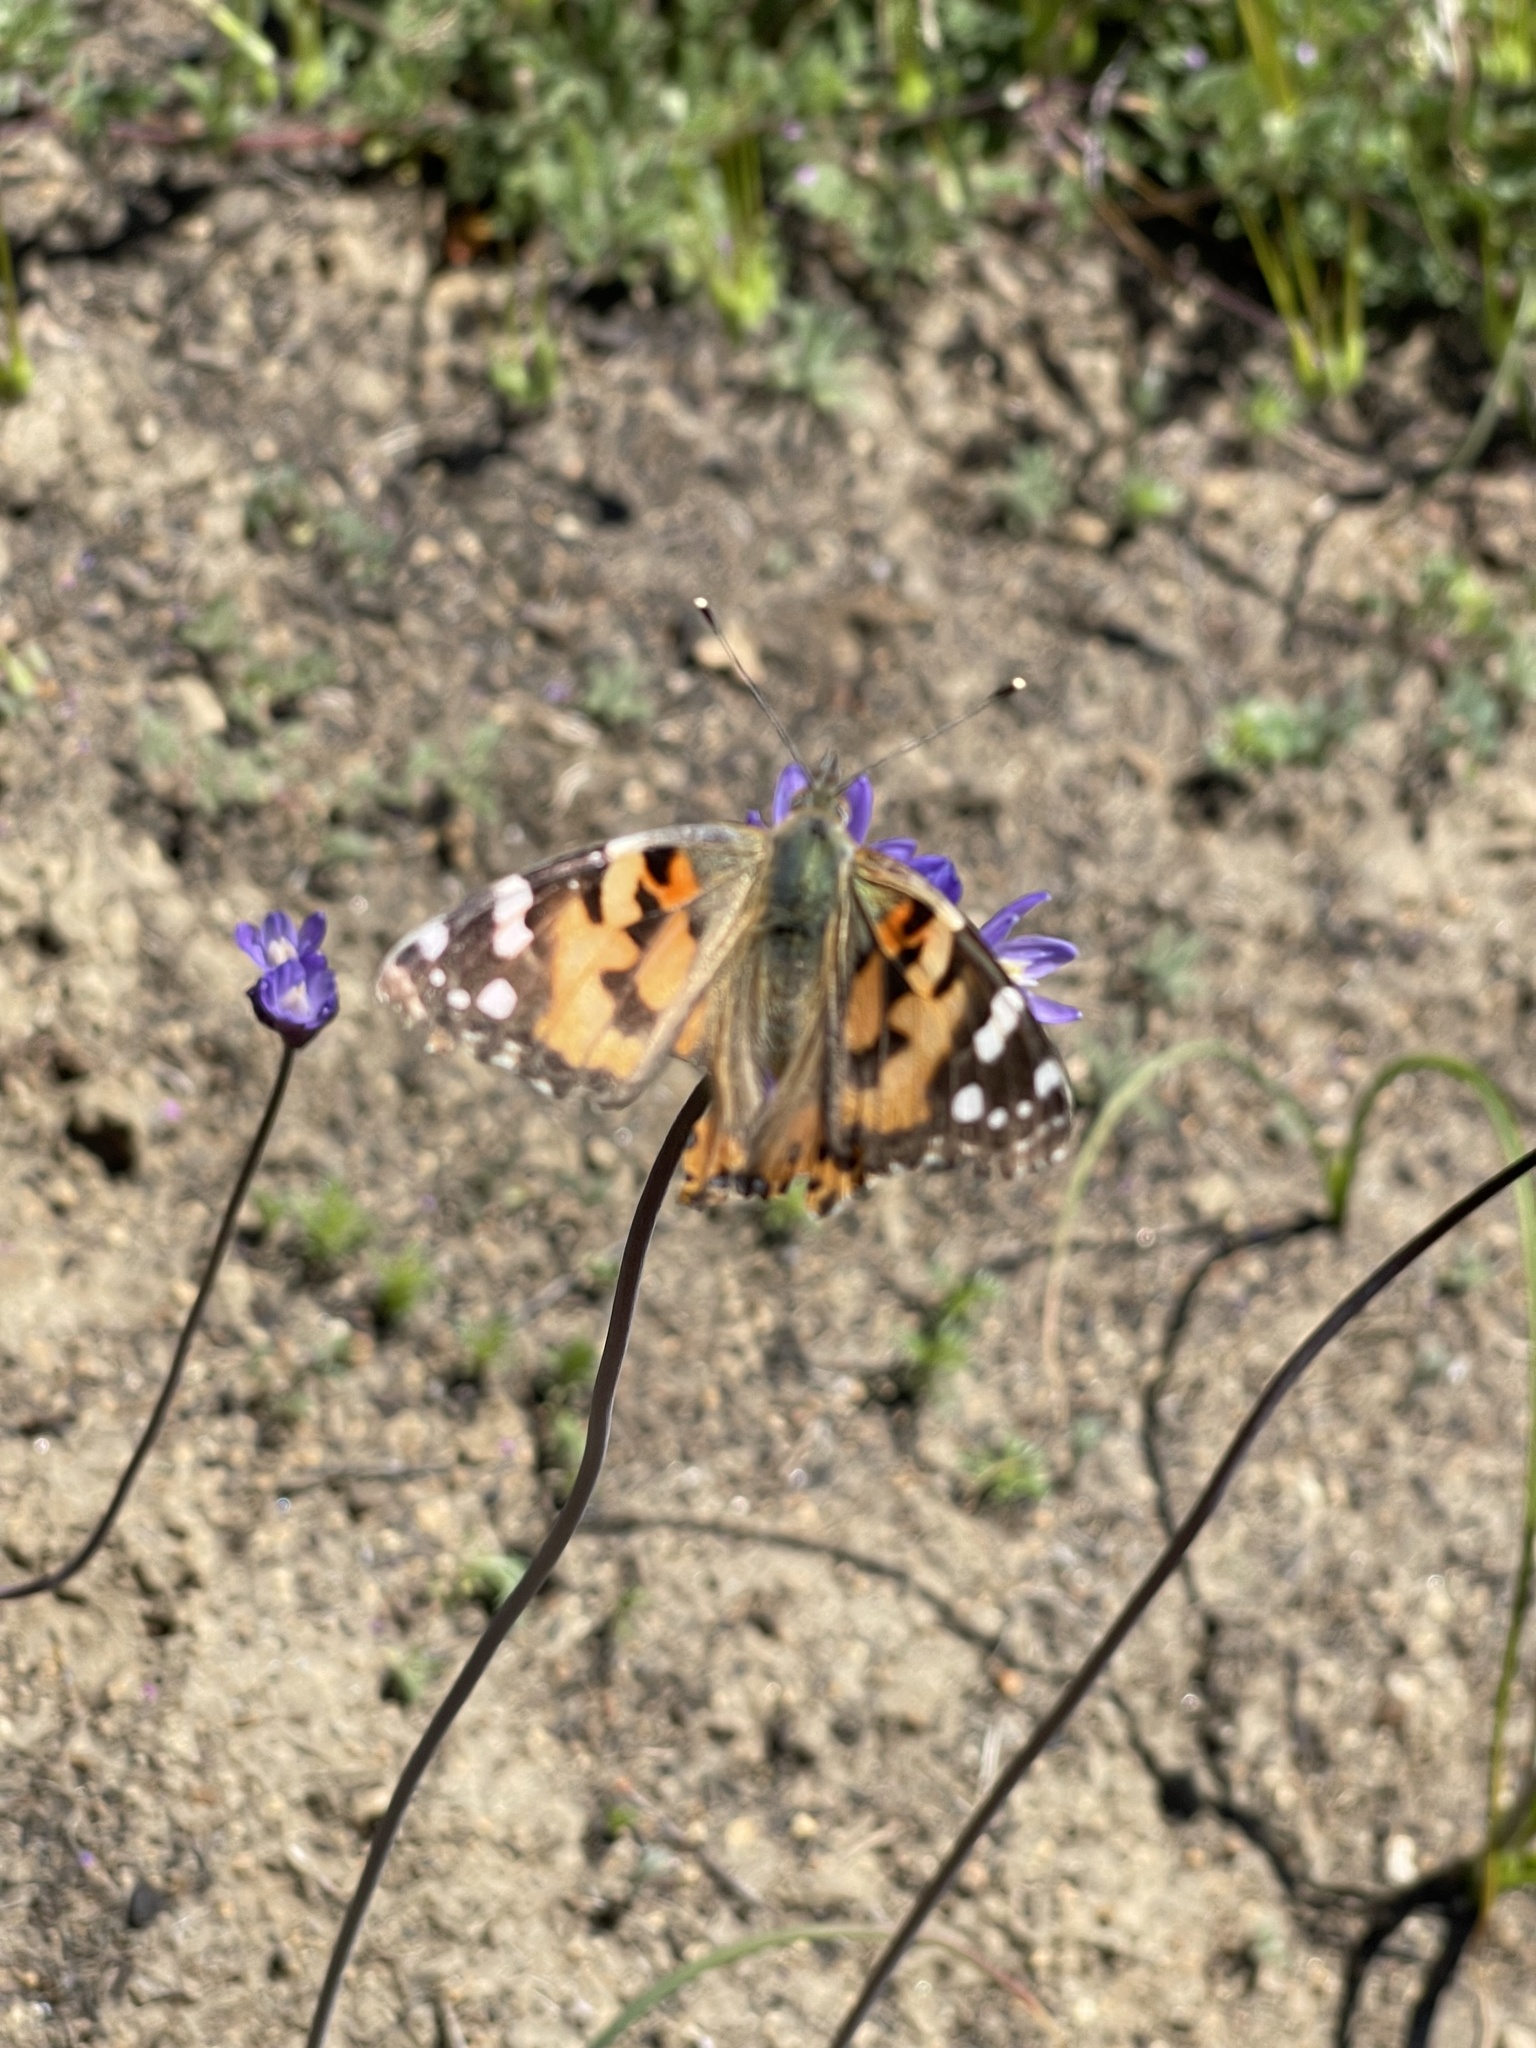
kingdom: Animalia
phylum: Arthropoda
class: Insecta
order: Lepidoptera
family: Nymphalidae
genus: Vanessa
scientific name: Vanessa cardui
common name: Painted lady
